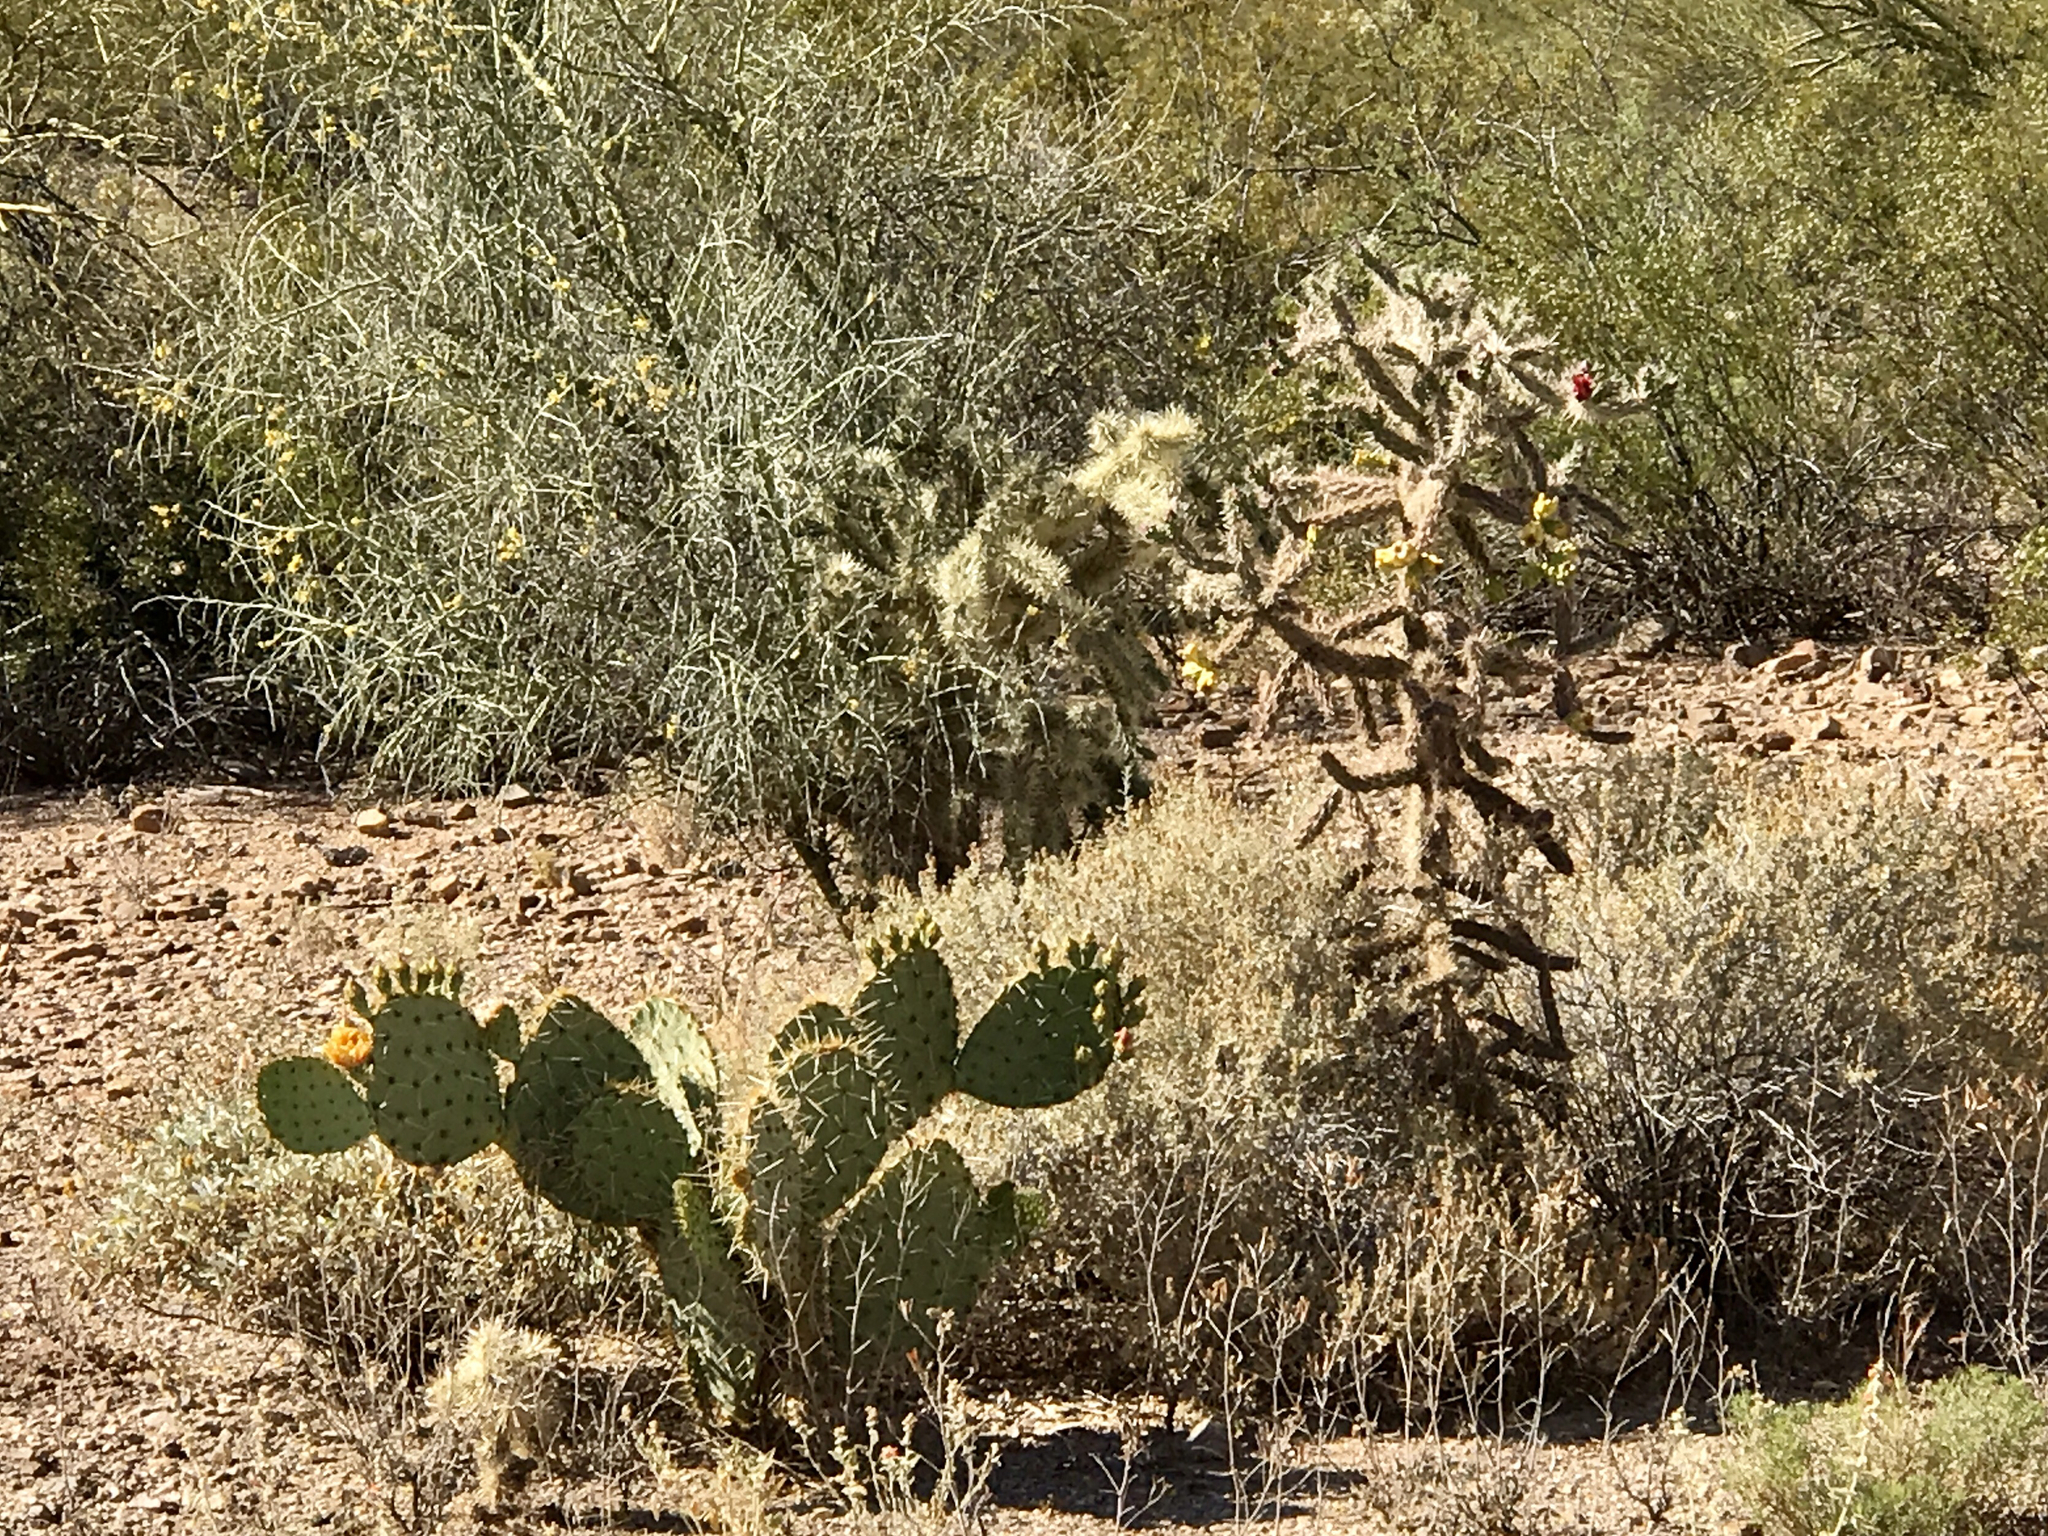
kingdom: Plantae
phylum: Tracheophyta
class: Magnoliopsida
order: Caryophyllales
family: Cactaceae
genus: Cylindropuntia
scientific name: Cylindropuntia imbricata
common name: Candelabrum cactus
